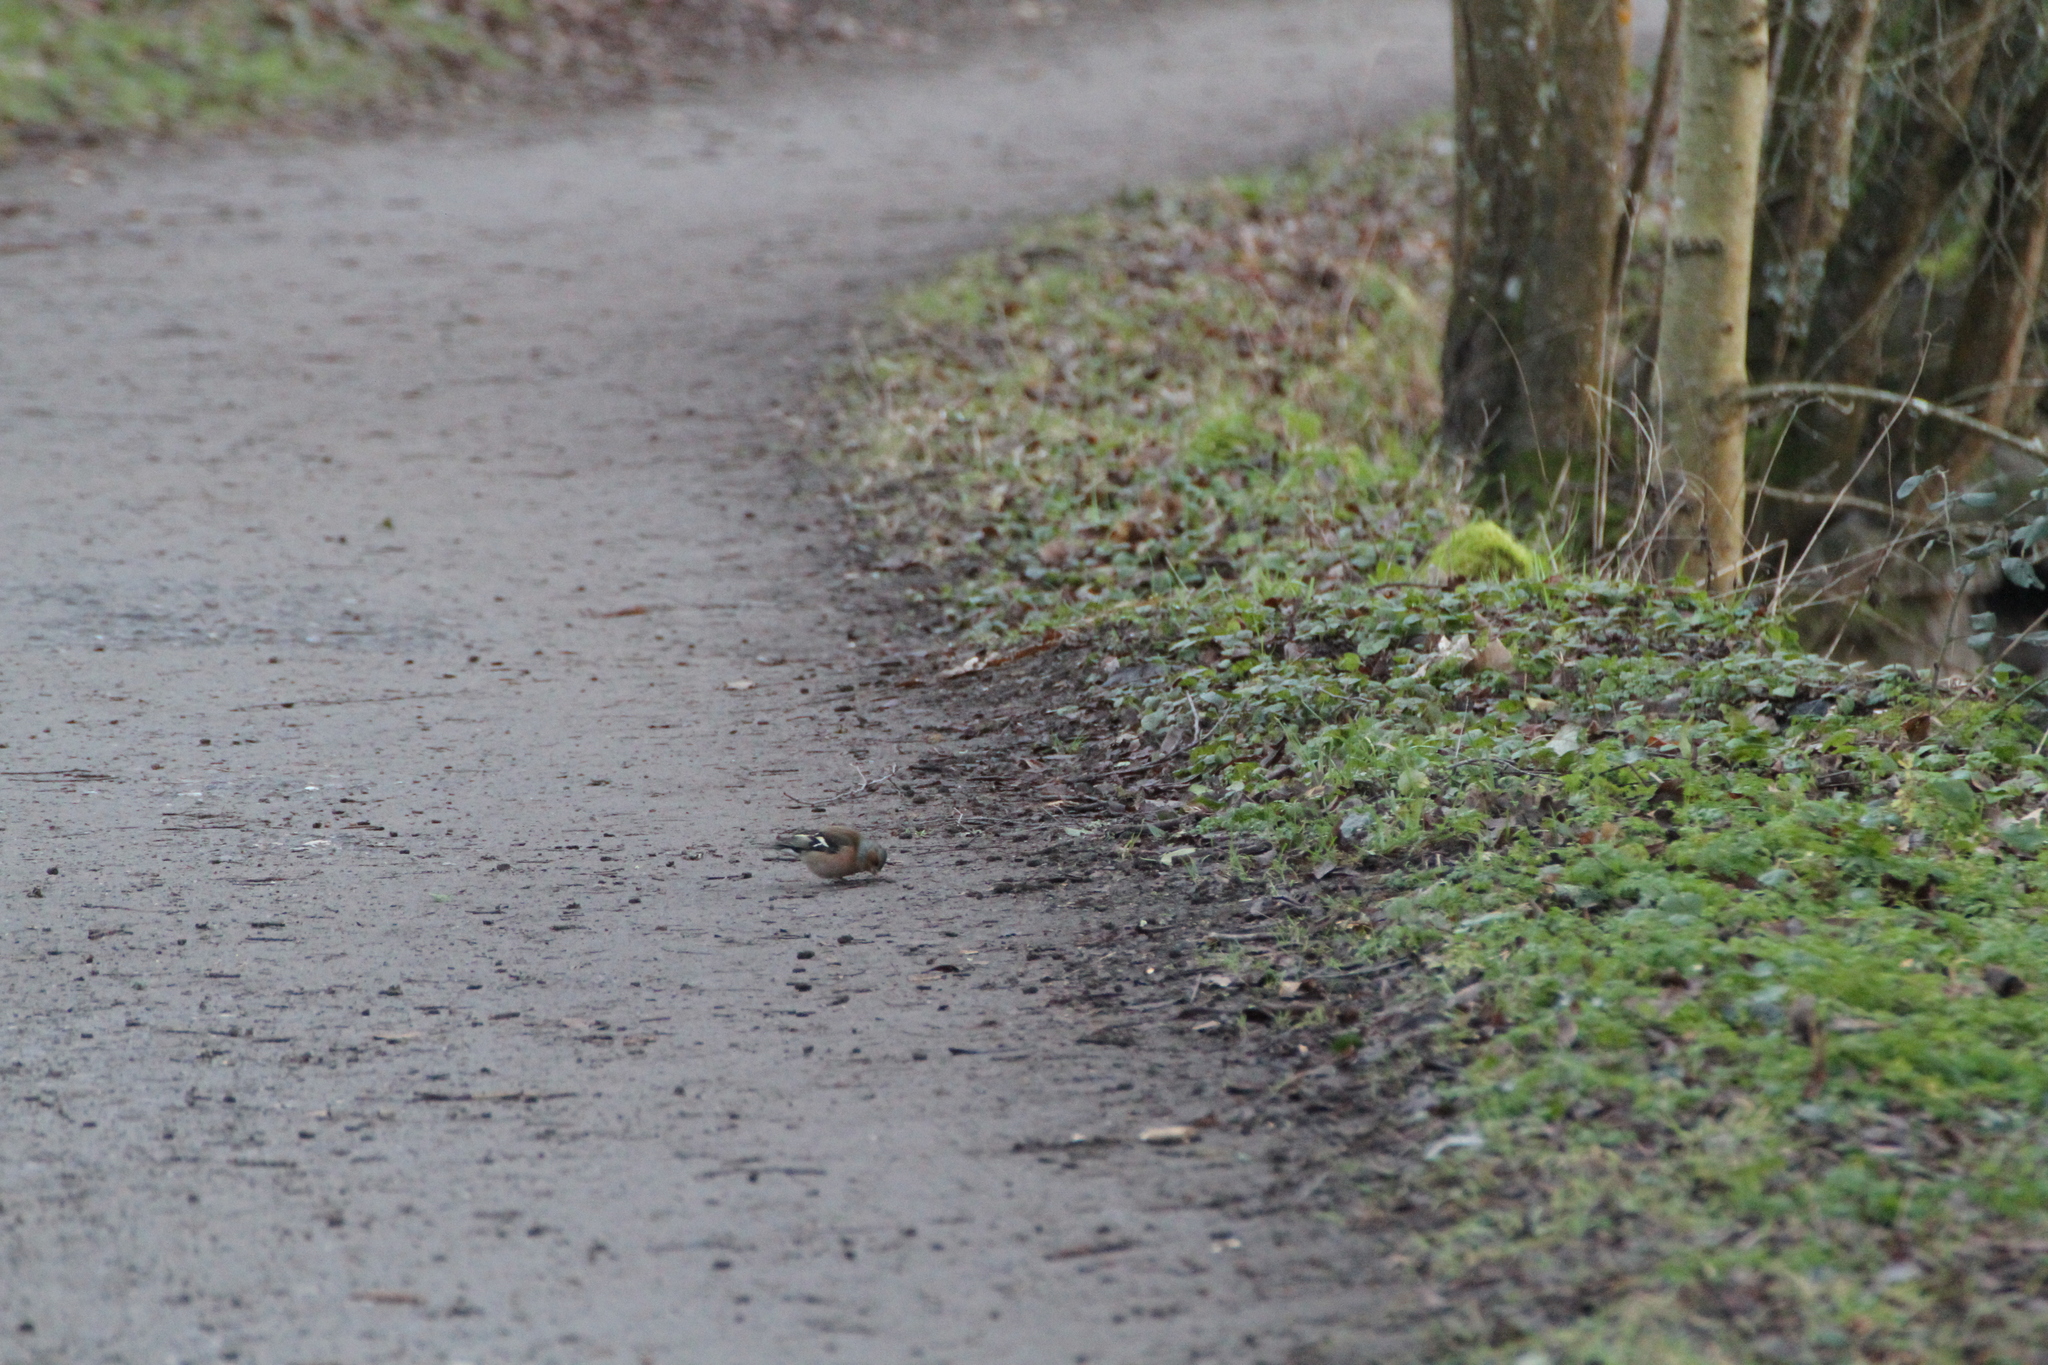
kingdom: Animalia
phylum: Chordata
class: Aves
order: Passeriformes
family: Fringillidae
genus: Fringilla
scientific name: Fringilla coelebs
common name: Common chaffinch
